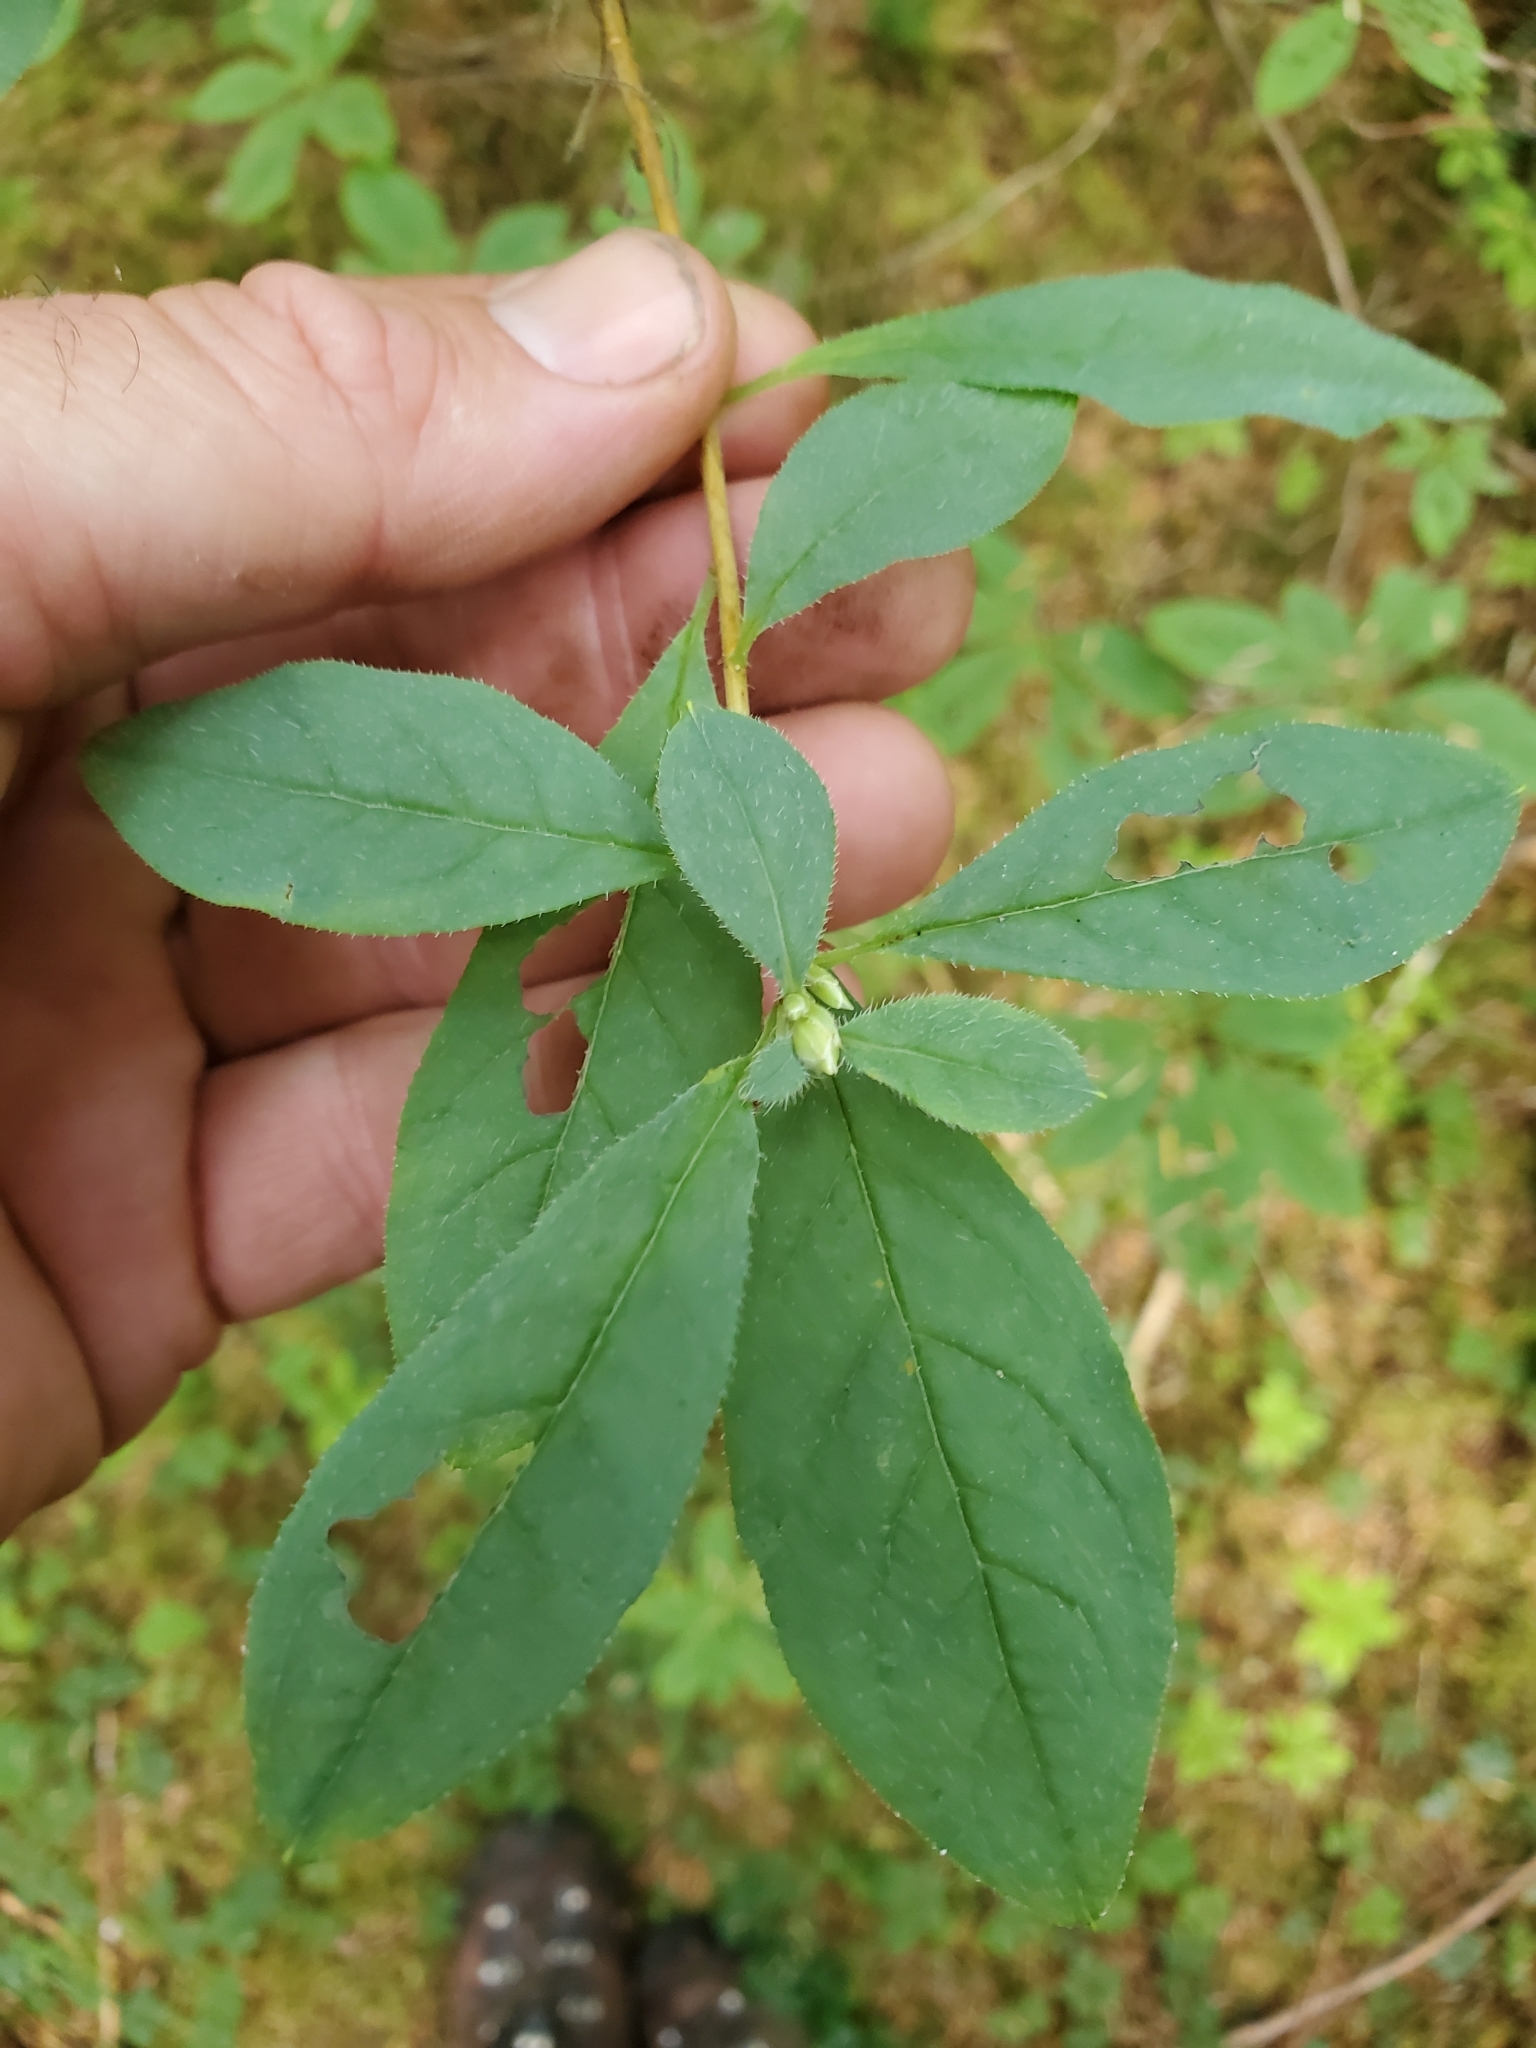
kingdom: Plantae
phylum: Tracheophyta
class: Magnoliopsida
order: Ericales
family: Ericaceae
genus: Rhododendron
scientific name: Rhododendron menziesii
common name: Pacific menziesia
